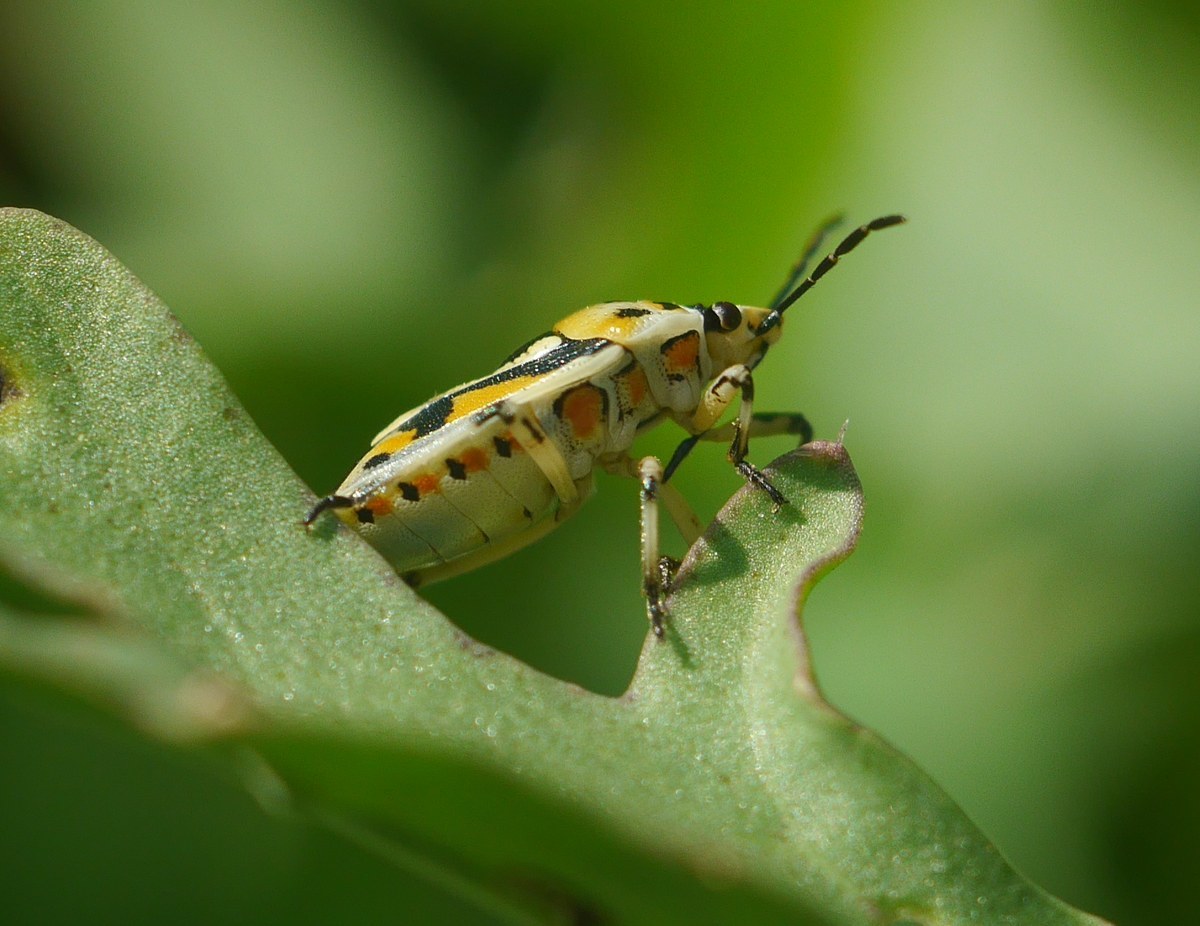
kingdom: Animalia
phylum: Arthropoda
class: Insecta
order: Hemiptera
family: Pentatomidae
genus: Eurydema
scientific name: Eurydema ornata
